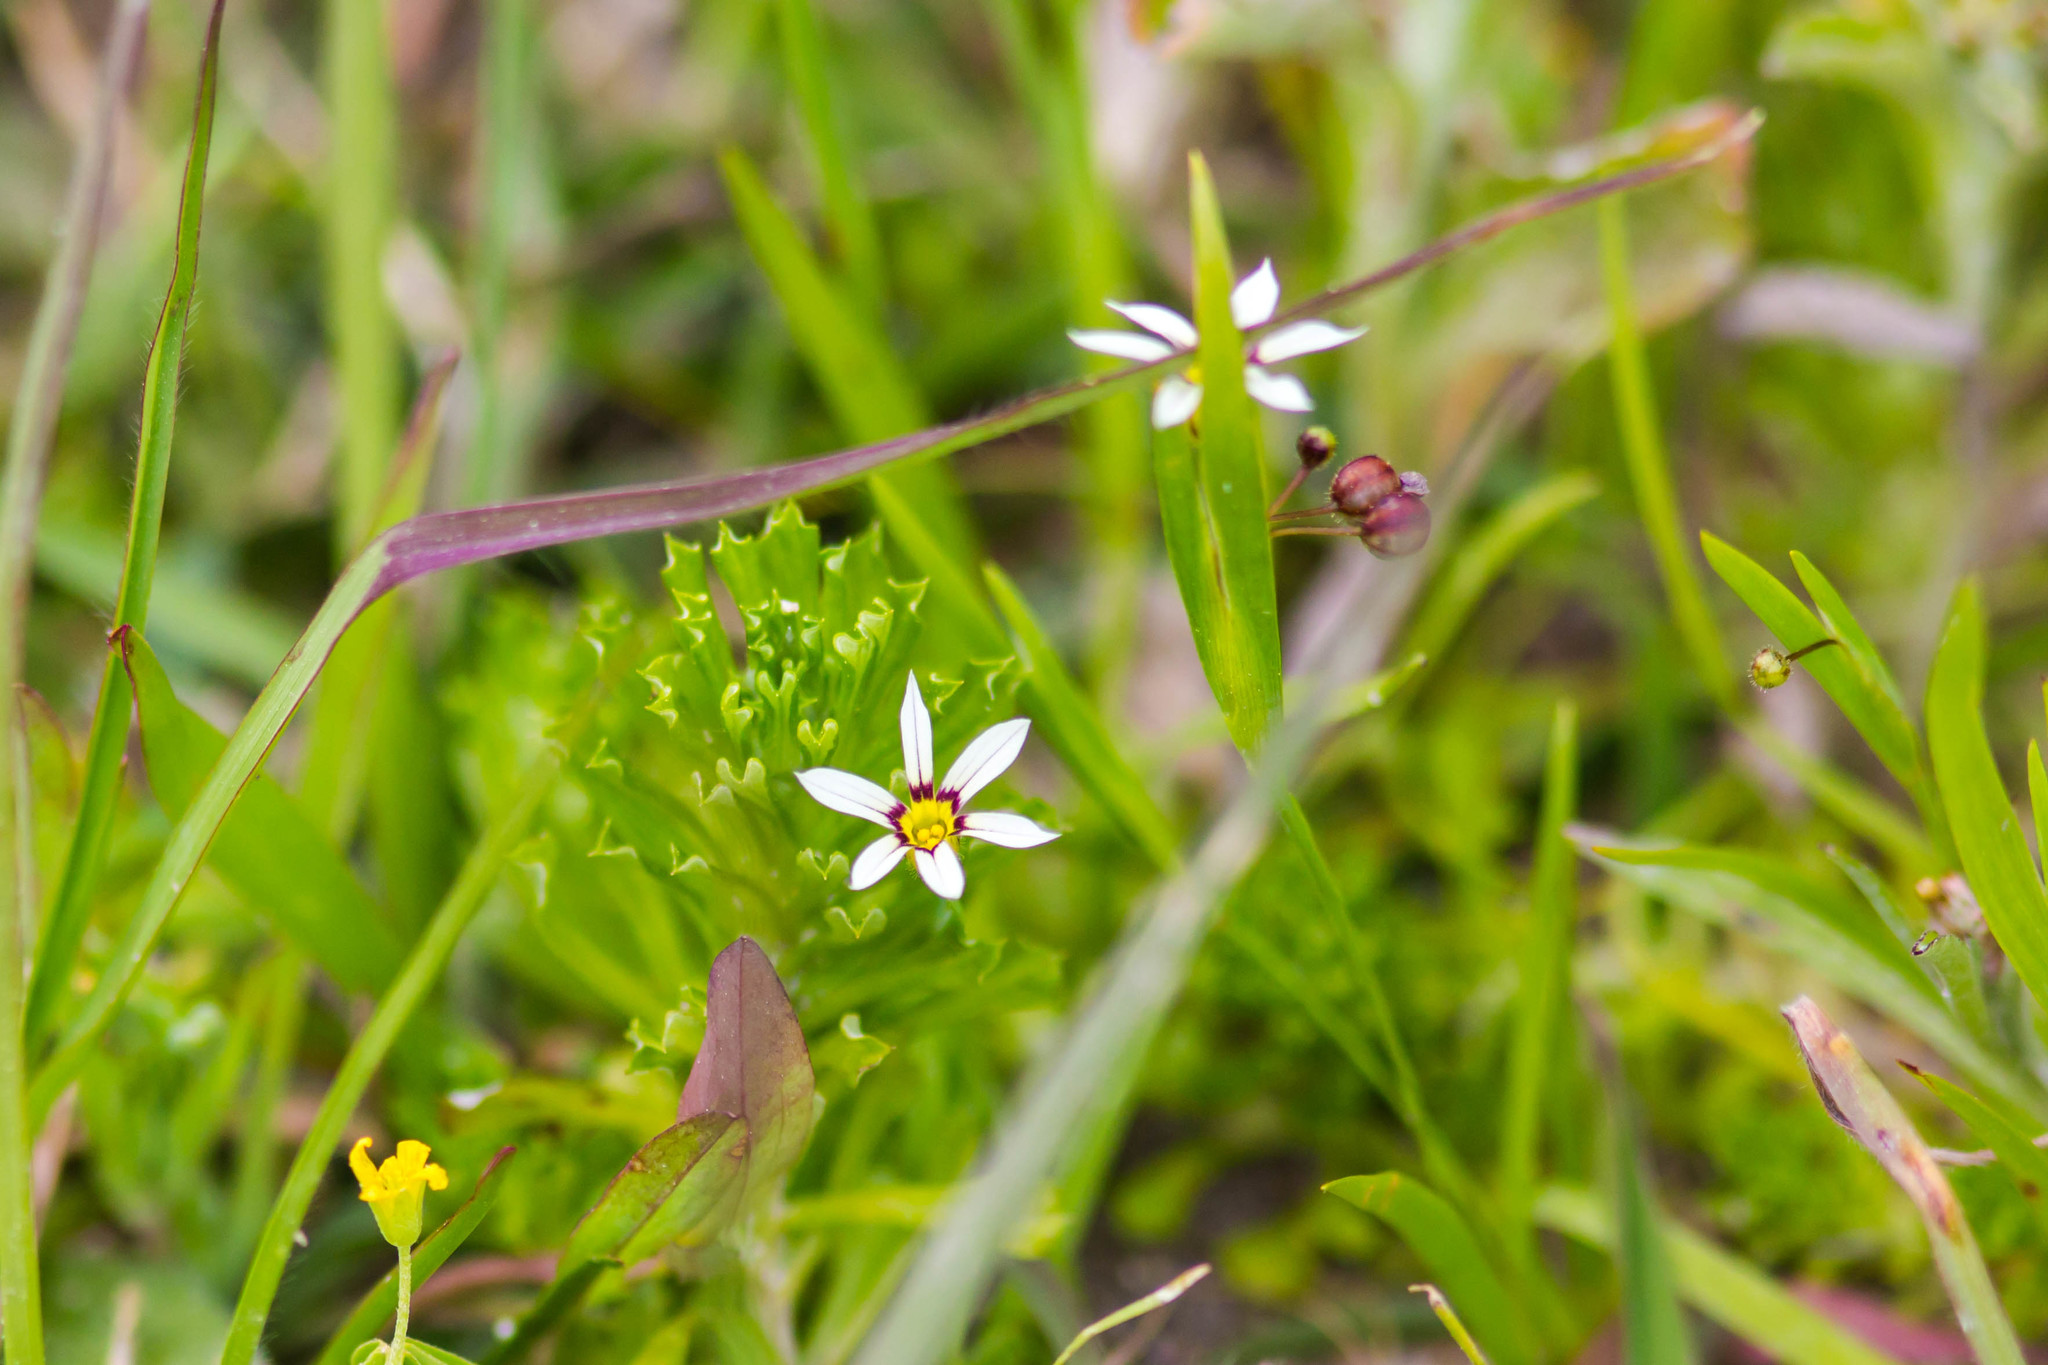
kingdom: Plantae
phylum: Tracheophyta
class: Liliopsida
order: Asparagales
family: Iridaceae
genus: Sisyrinchium
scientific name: Sisyrinchium micranthum
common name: Bermuda pigroot
